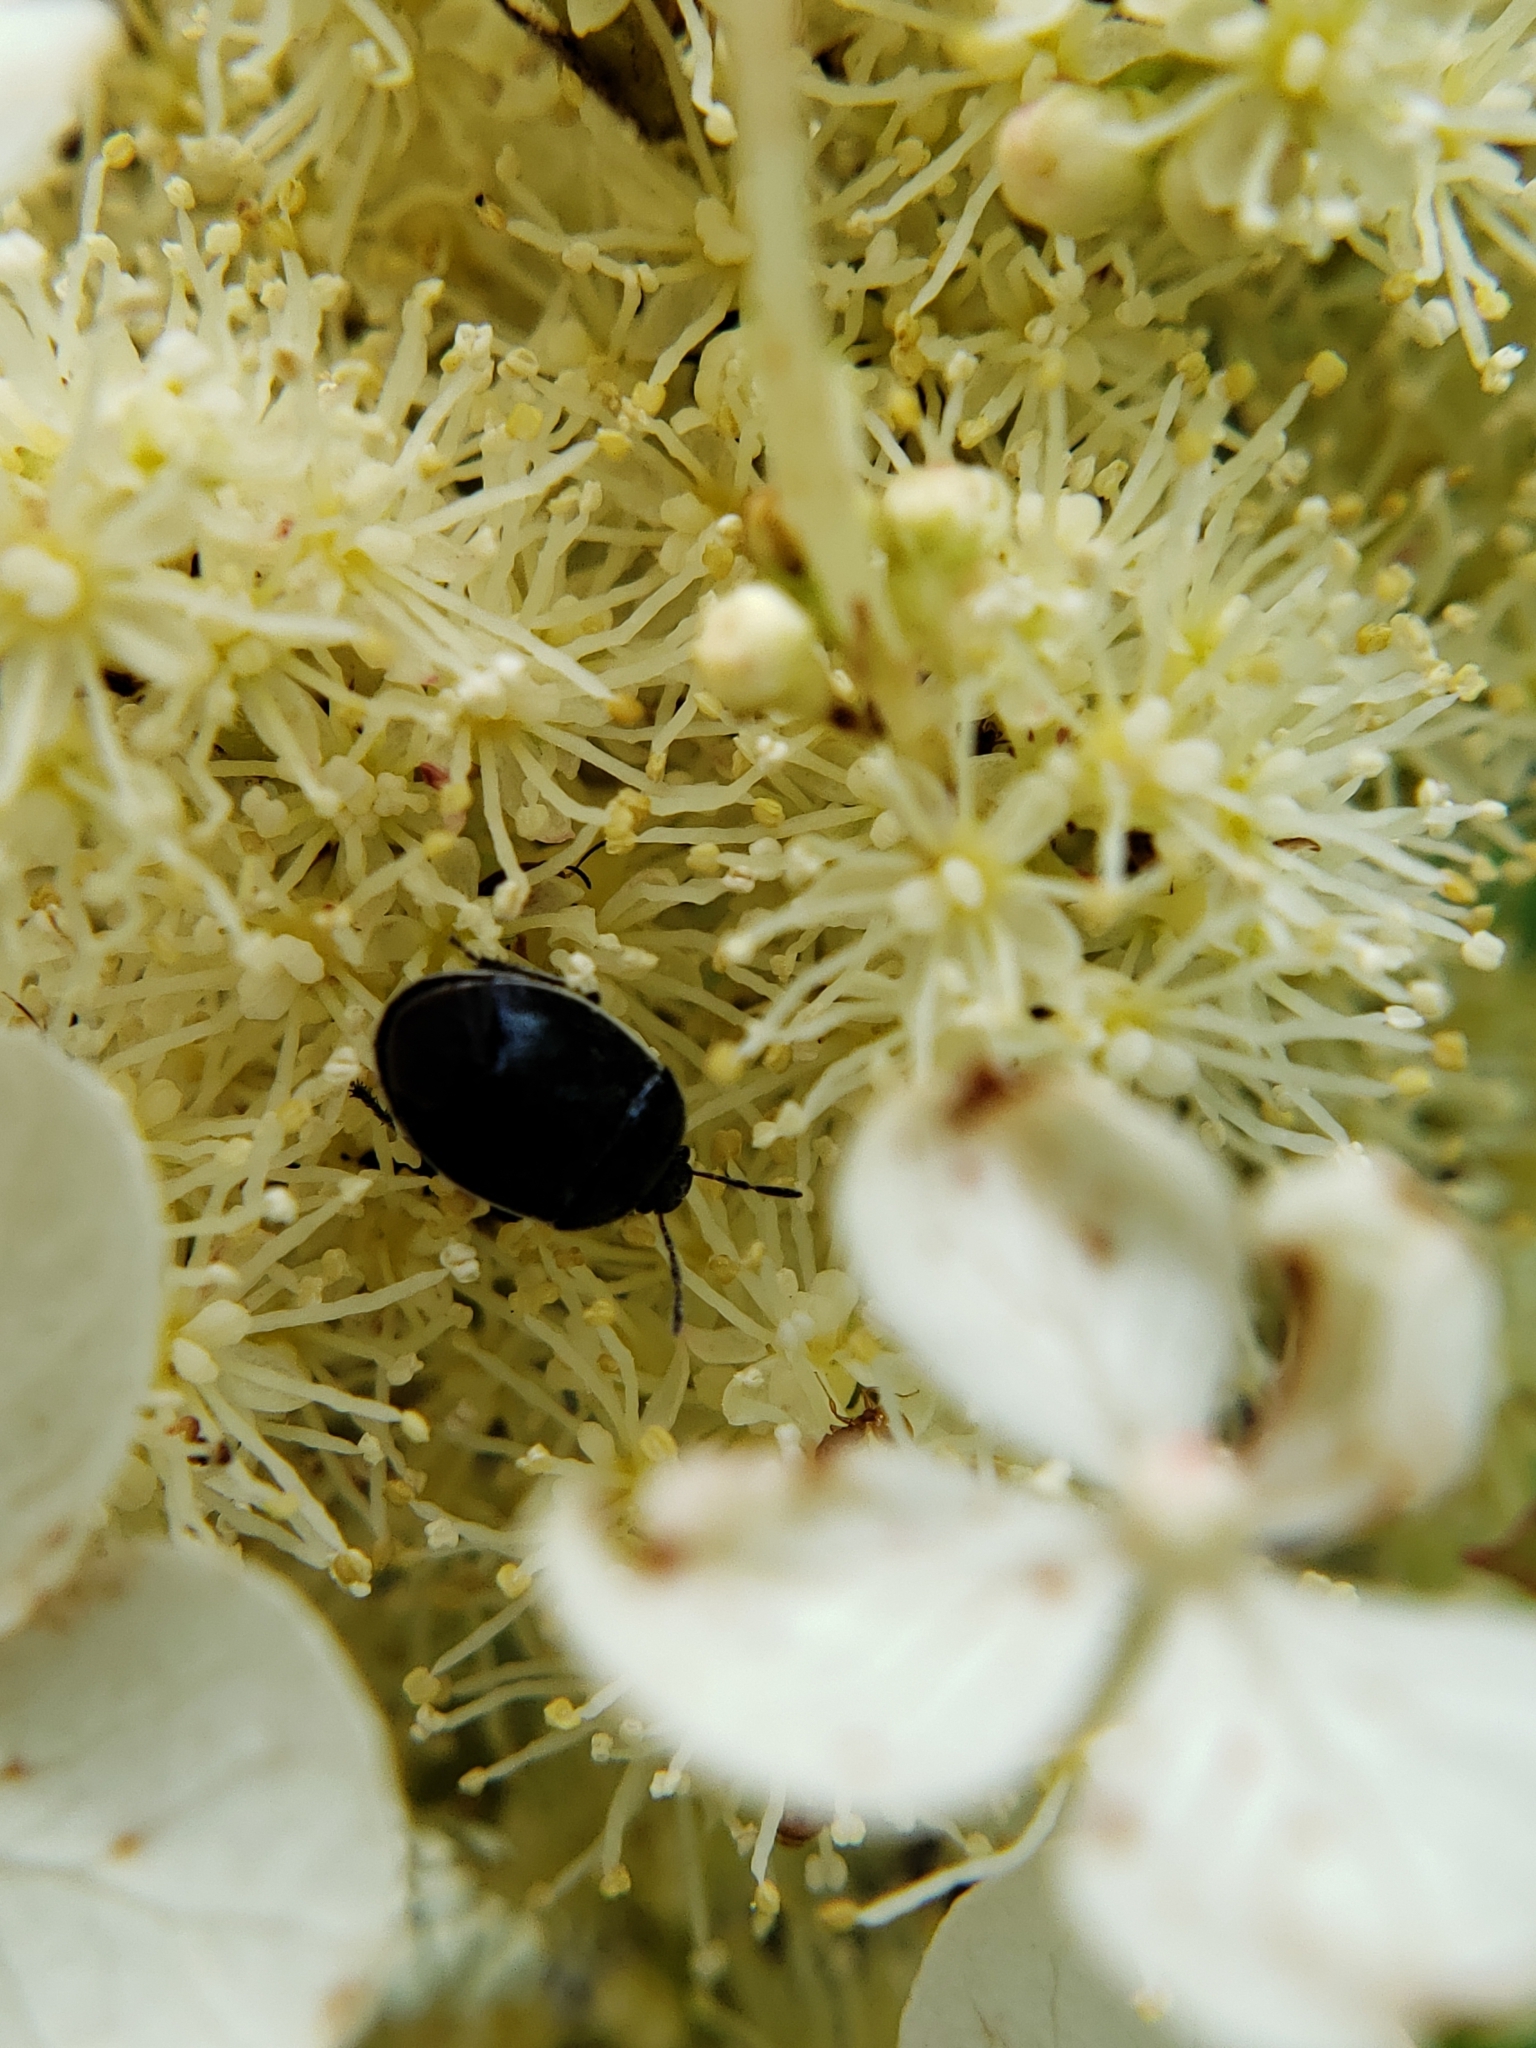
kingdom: Animalia
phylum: Arthropoda
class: Insecta
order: Hemiptera
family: Cydnidae
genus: Sehirus
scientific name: Sehirus cinctus
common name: White-margined burrower bug
